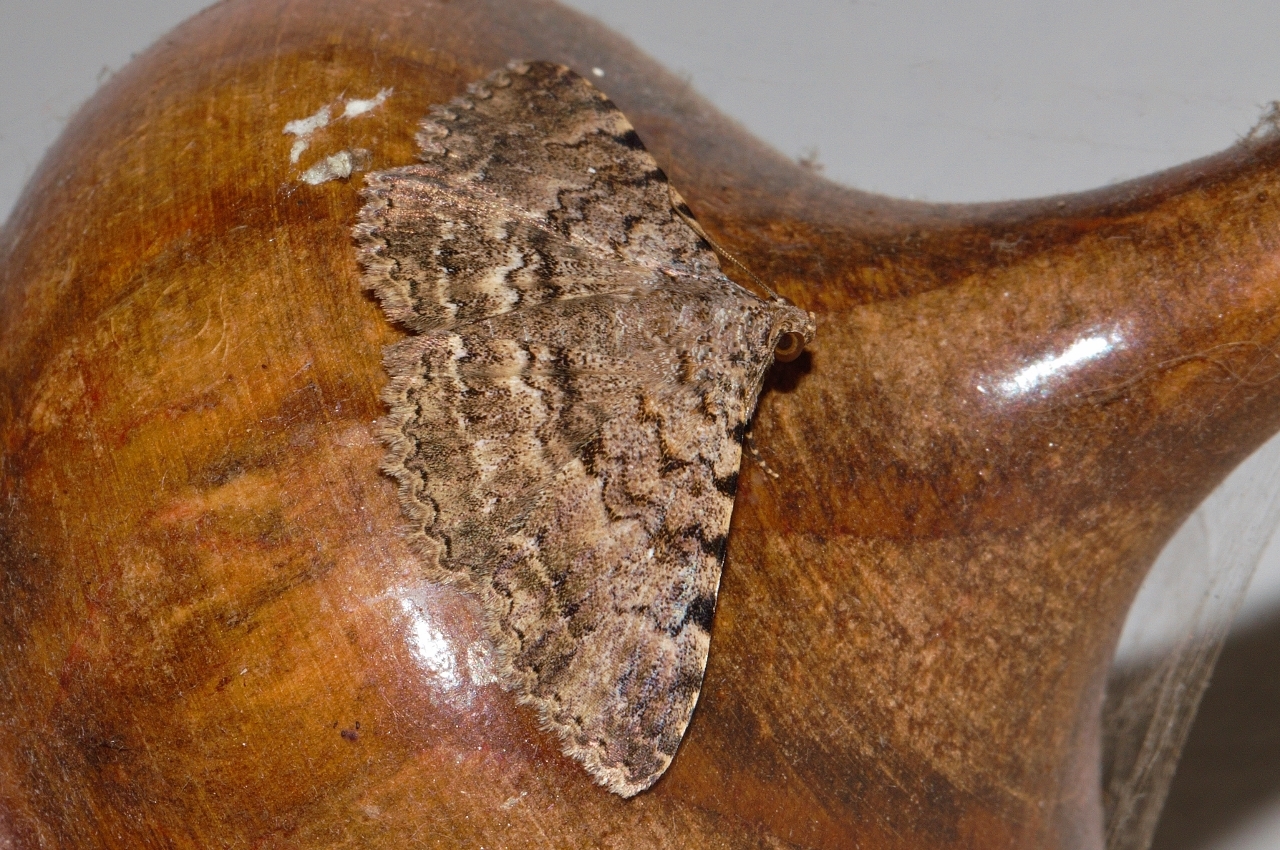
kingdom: Animalia
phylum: Arthropoda
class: Insecta
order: Lepidoptera
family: Erebidae
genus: Polydesma
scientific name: Polydesma sagulata
